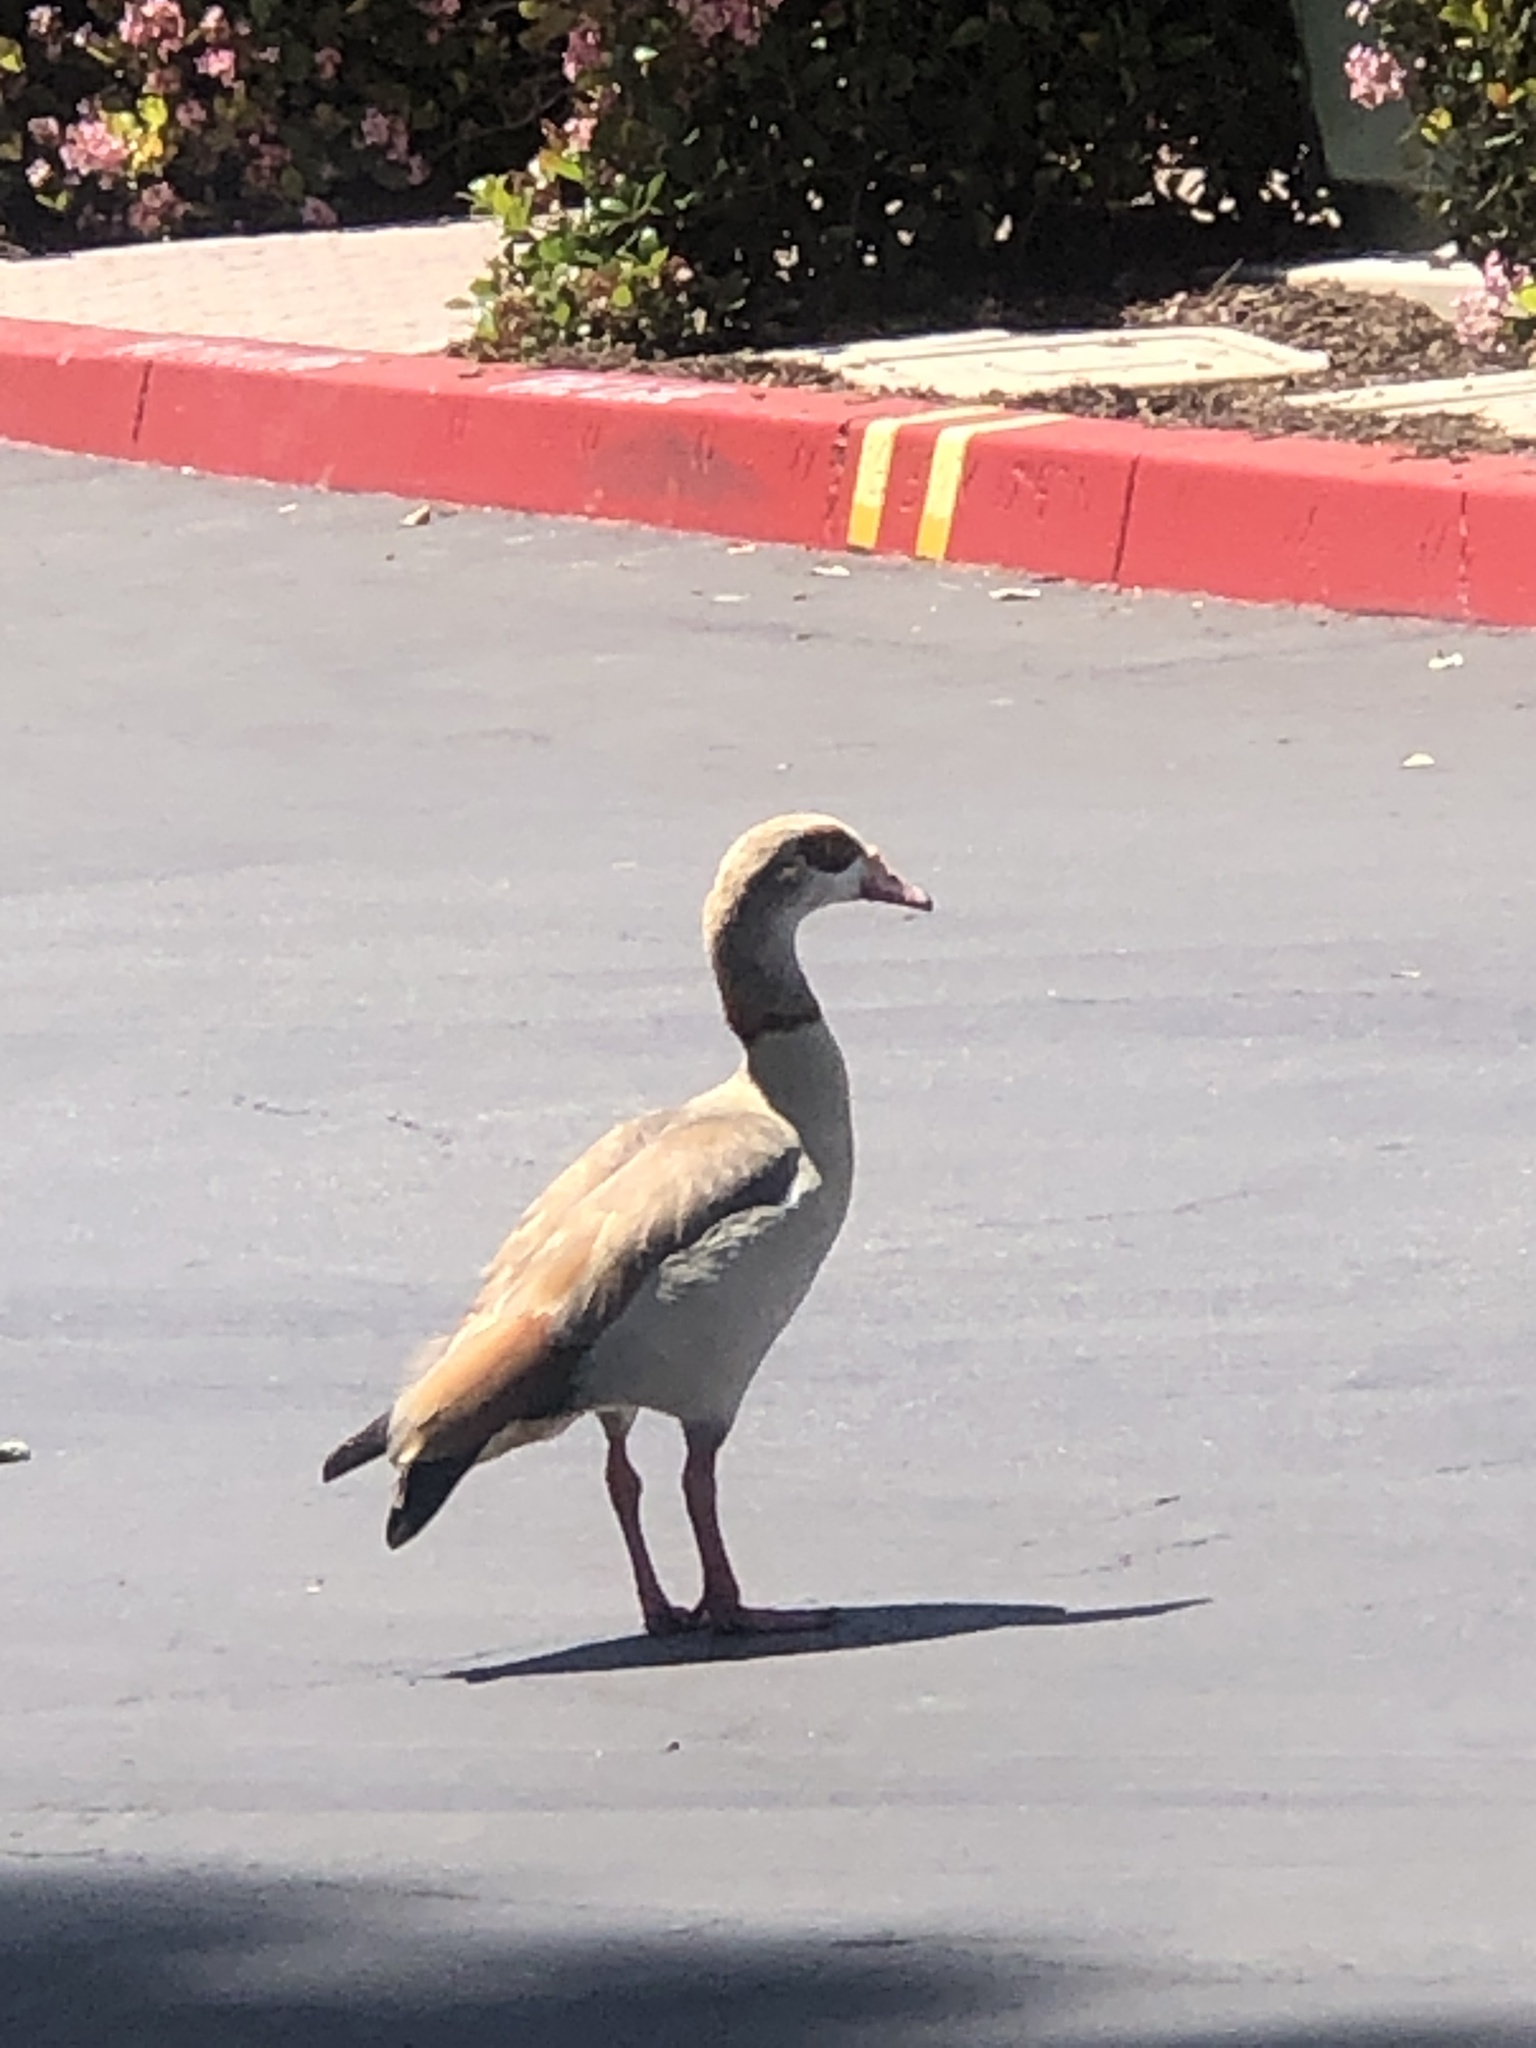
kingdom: Animalia
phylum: Chordata
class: Aves
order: Anseriformes
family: Anatidae
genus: Alopochen
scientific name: Alopochen aegyptiaca
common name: Egyptian goose
